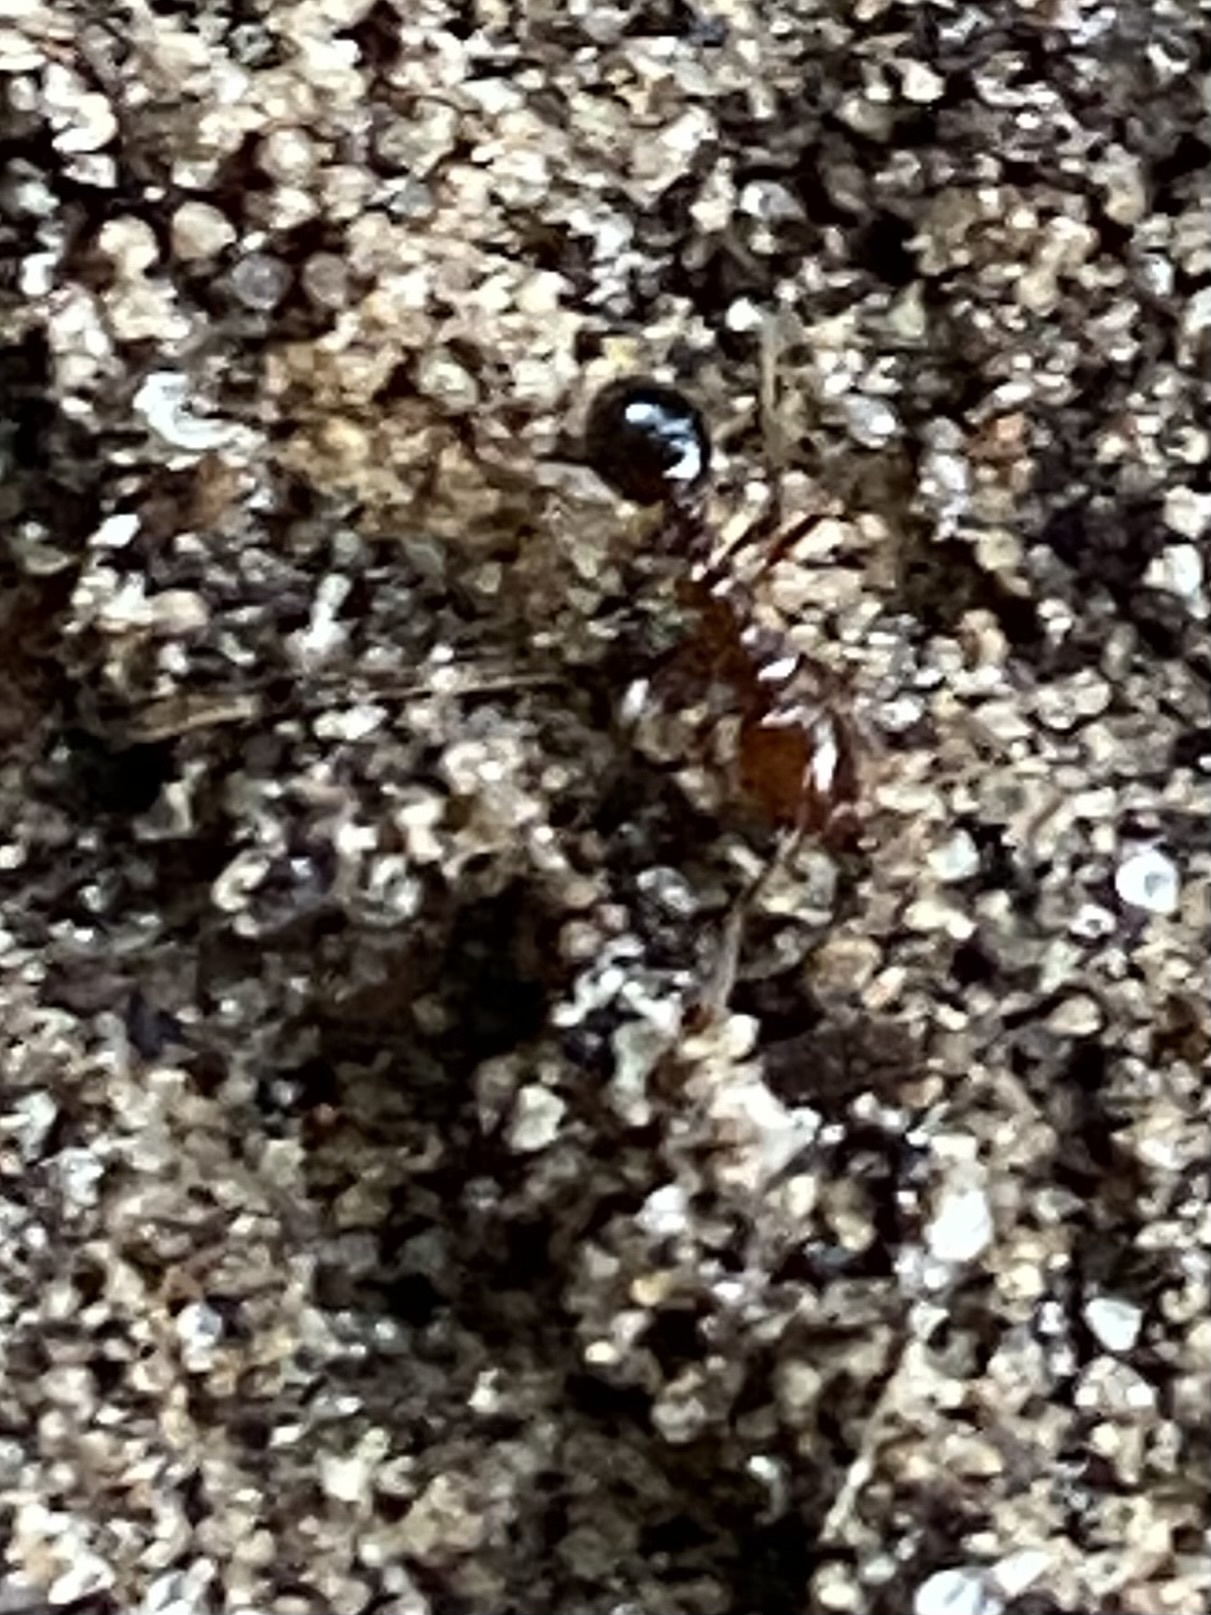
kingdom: Animalia
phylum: Arthropoda
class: Insecta
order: Hymenoptera
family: Formicidae
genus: Solenopsis
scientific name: Solenopsis invicta
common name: Red imported fire ant
